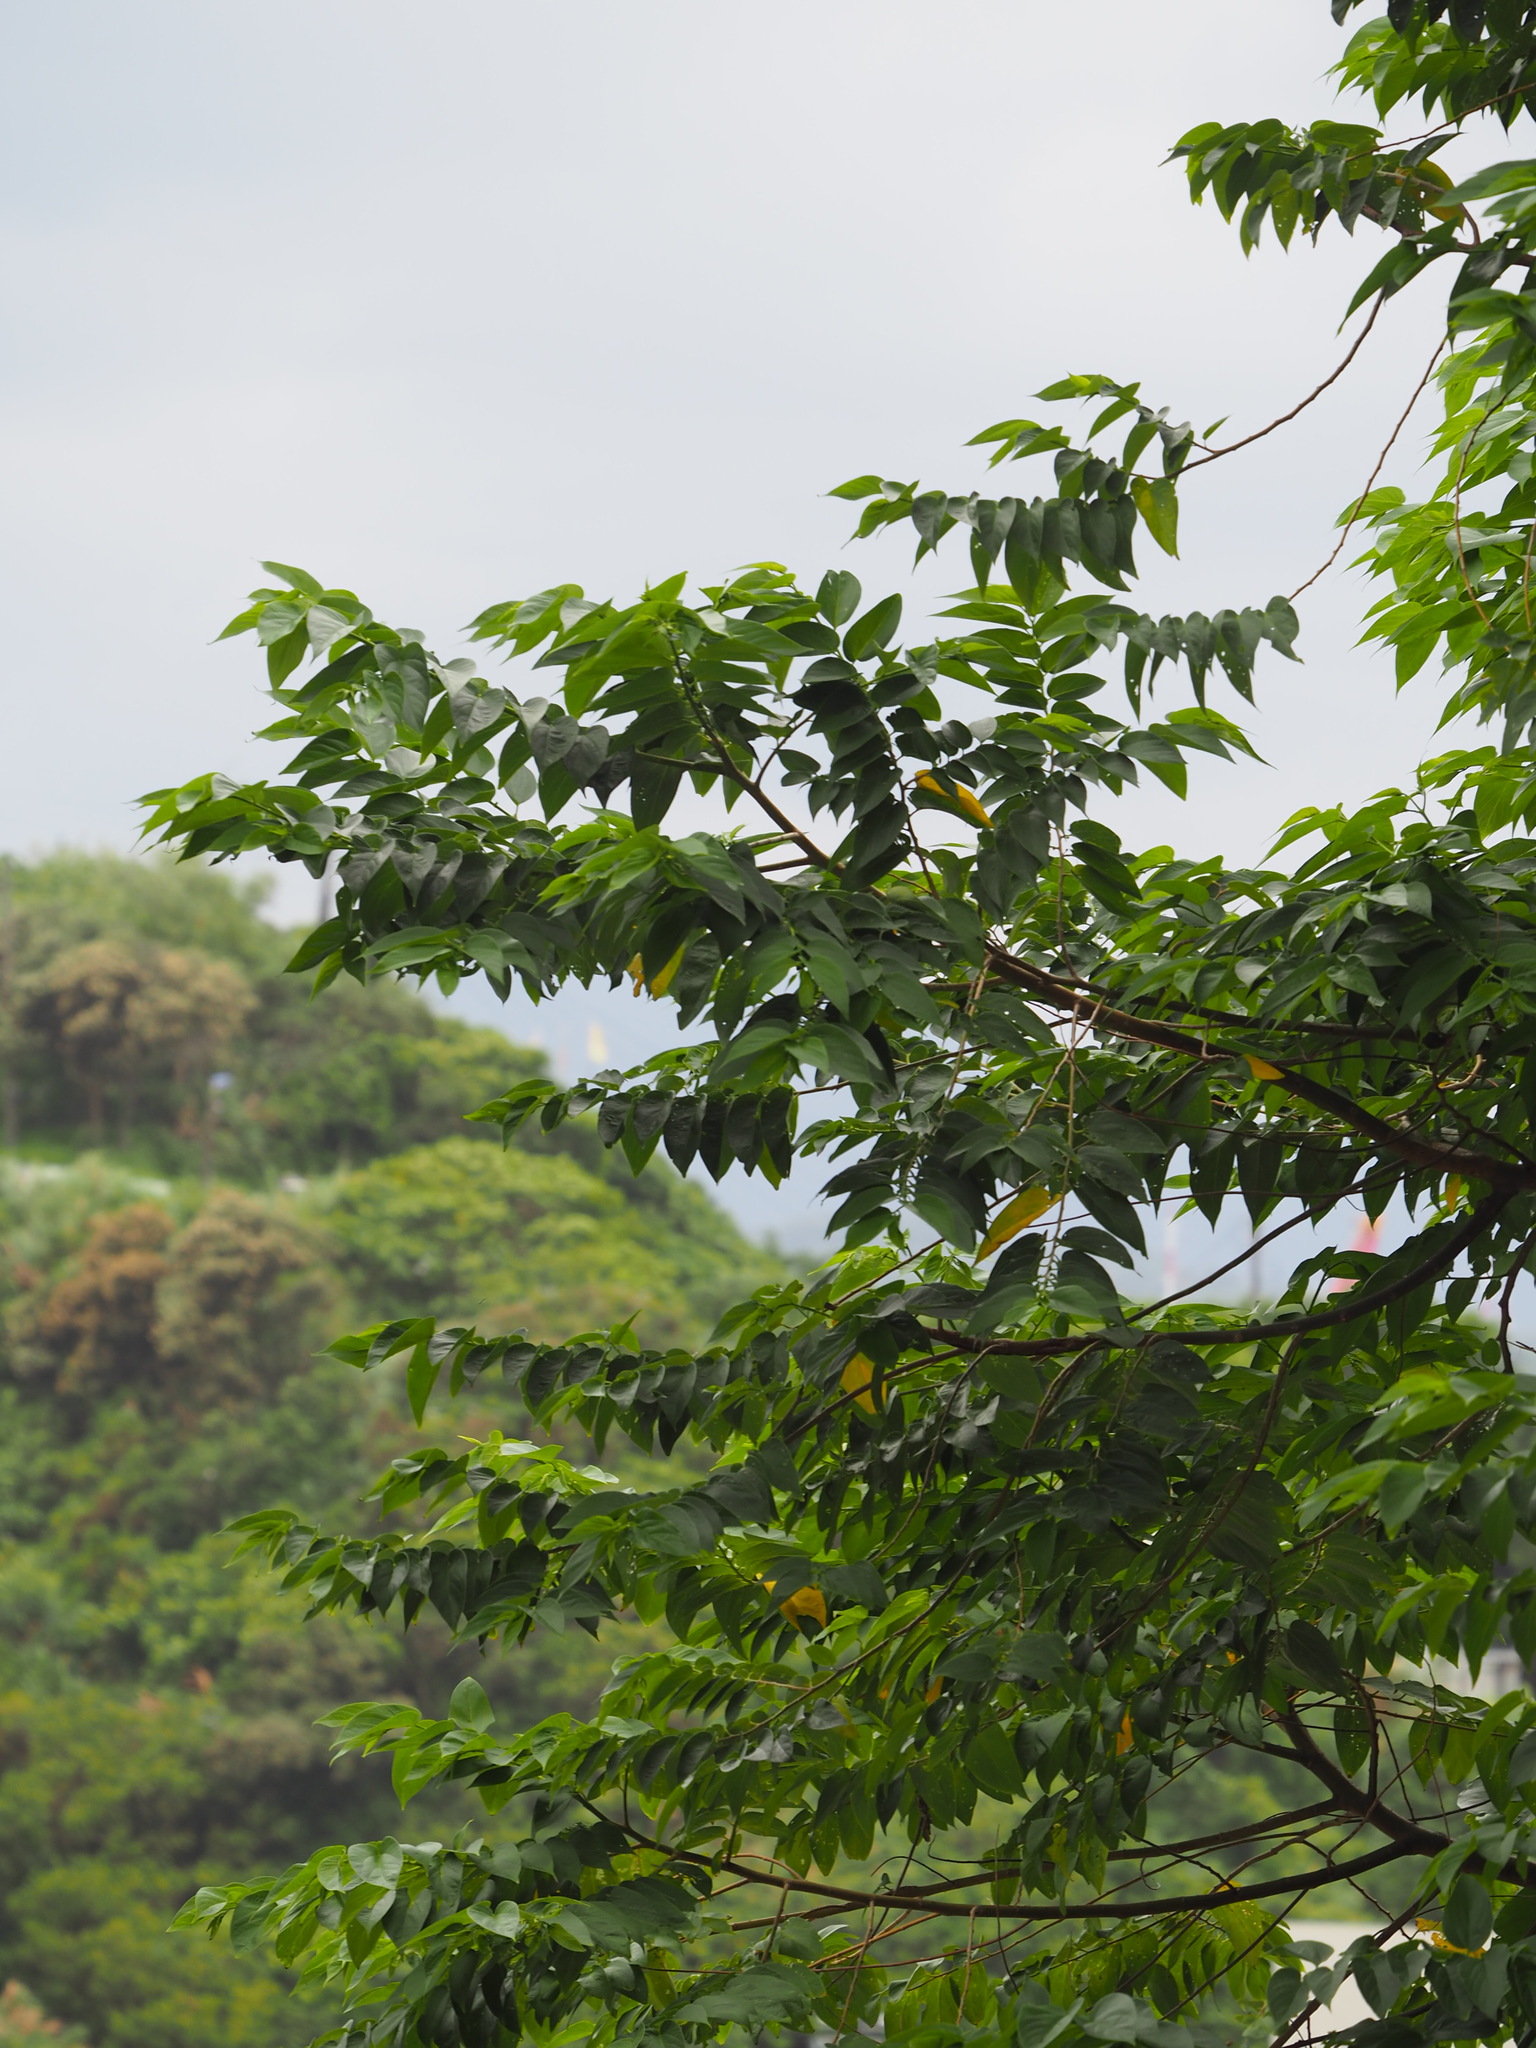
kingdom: Plantae
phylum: Tracheophyta
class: Magnoliopsida
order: Rosales
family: Cannabaceae
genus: Trema
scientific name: Trema orientale
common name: Indian charcoal tree
